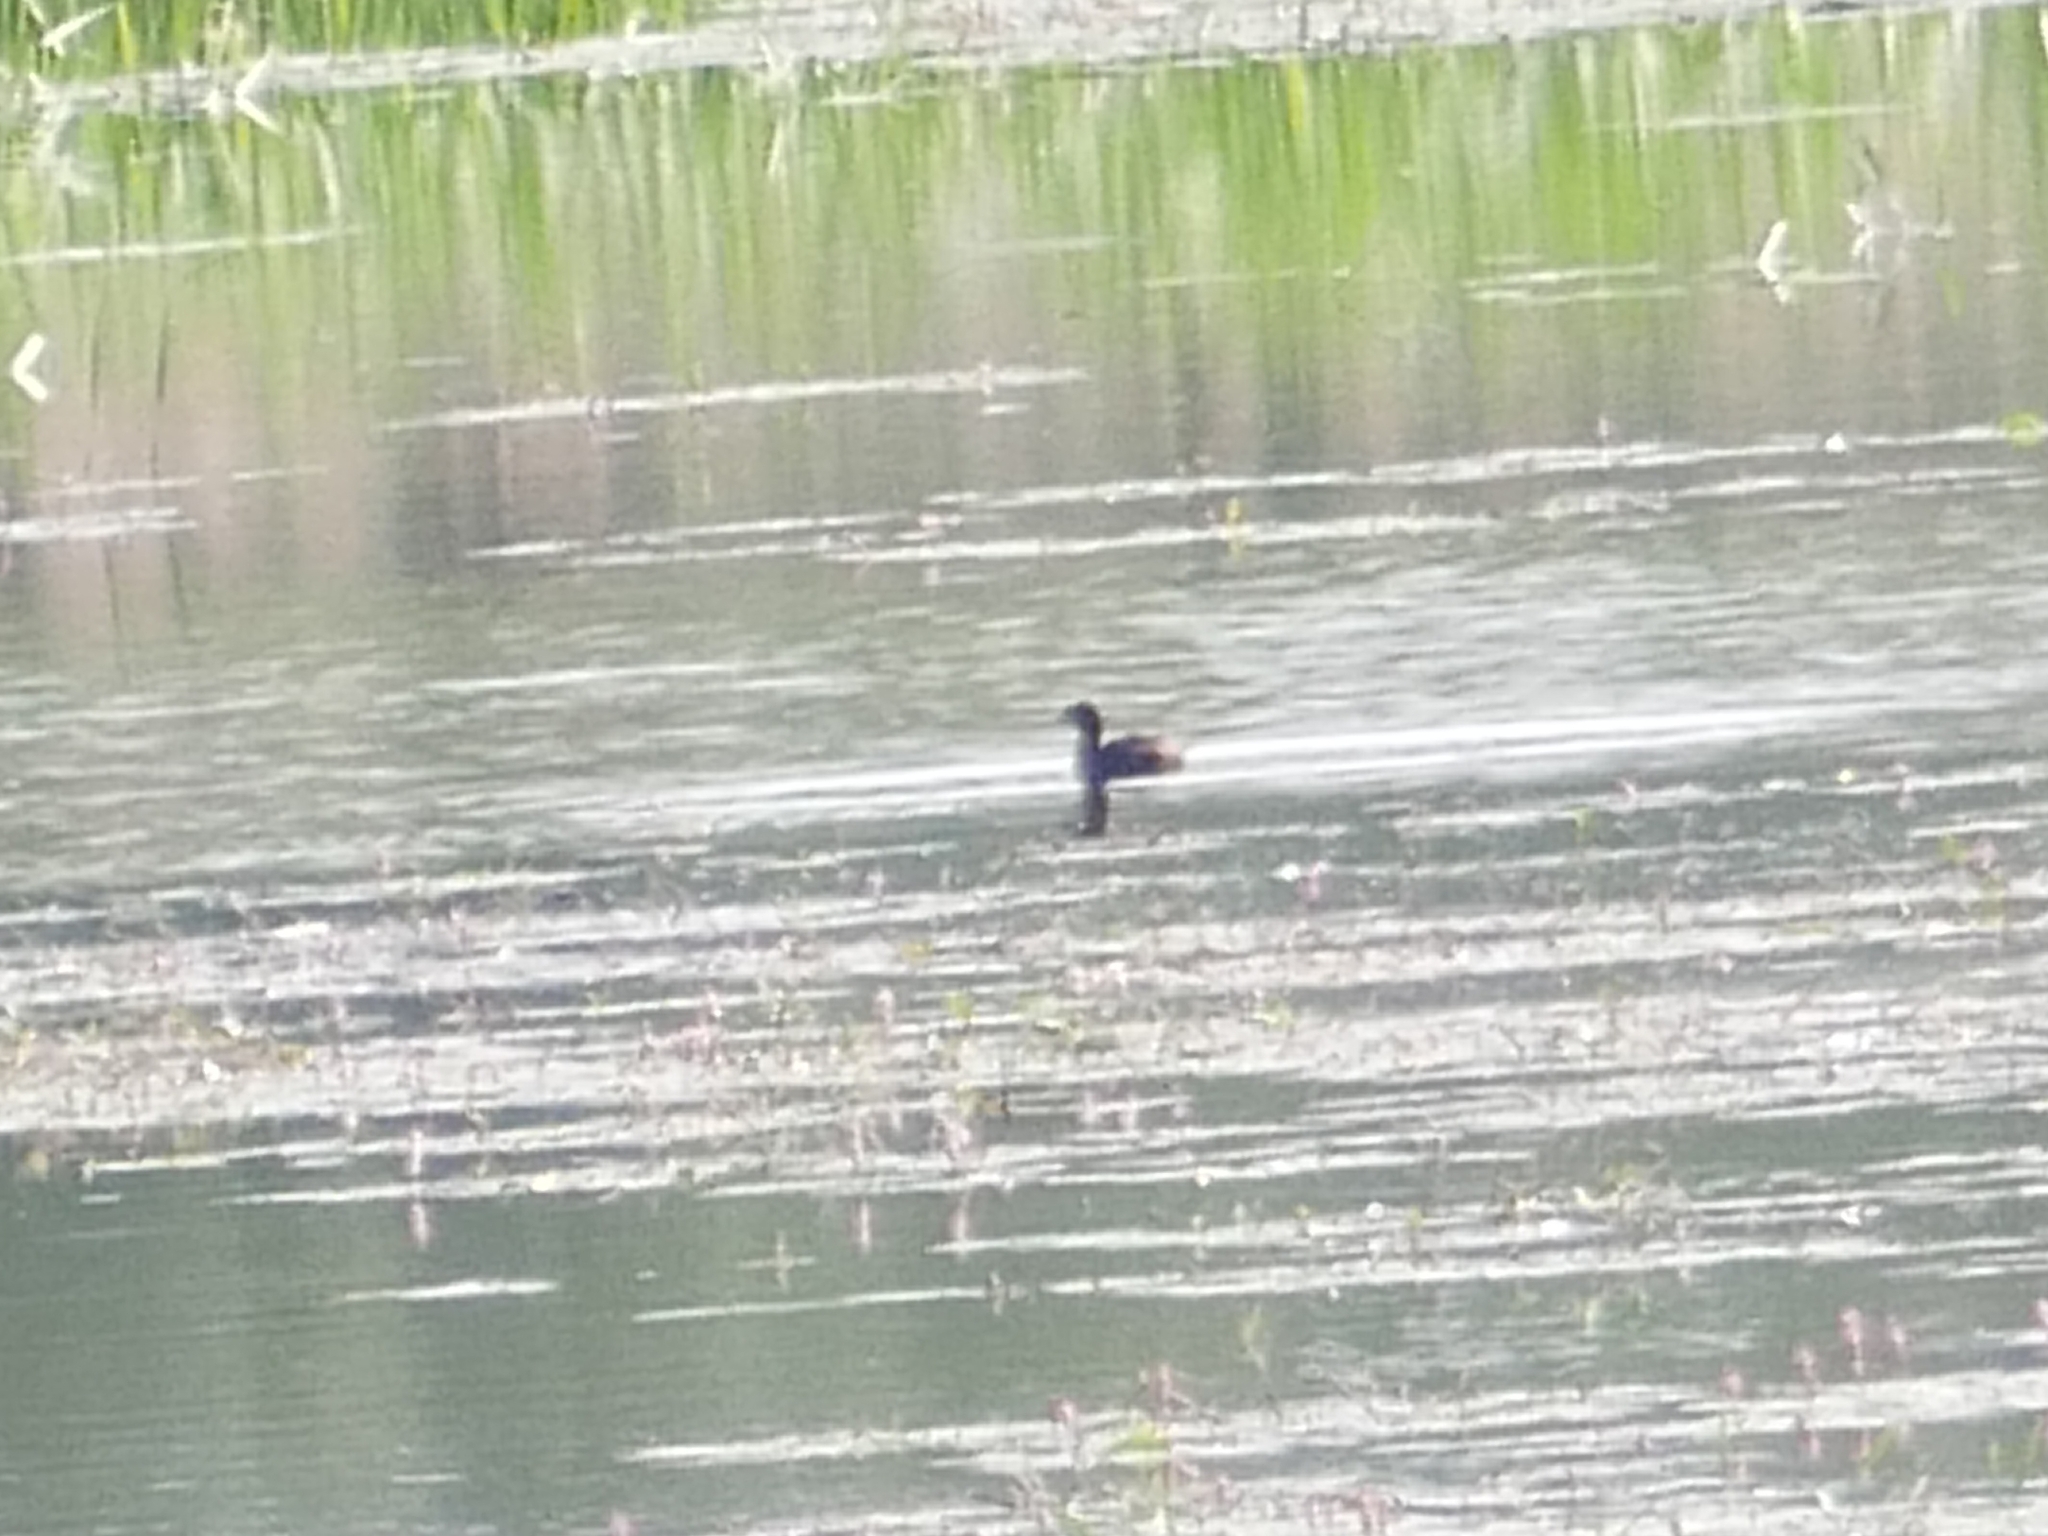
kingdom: Animalia
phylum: Chordata
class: Aves
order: Podicipediformes
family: Podicipedidae
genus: Tachybaptus
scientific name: Tachybaptus ruficollis
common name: Little grebe
